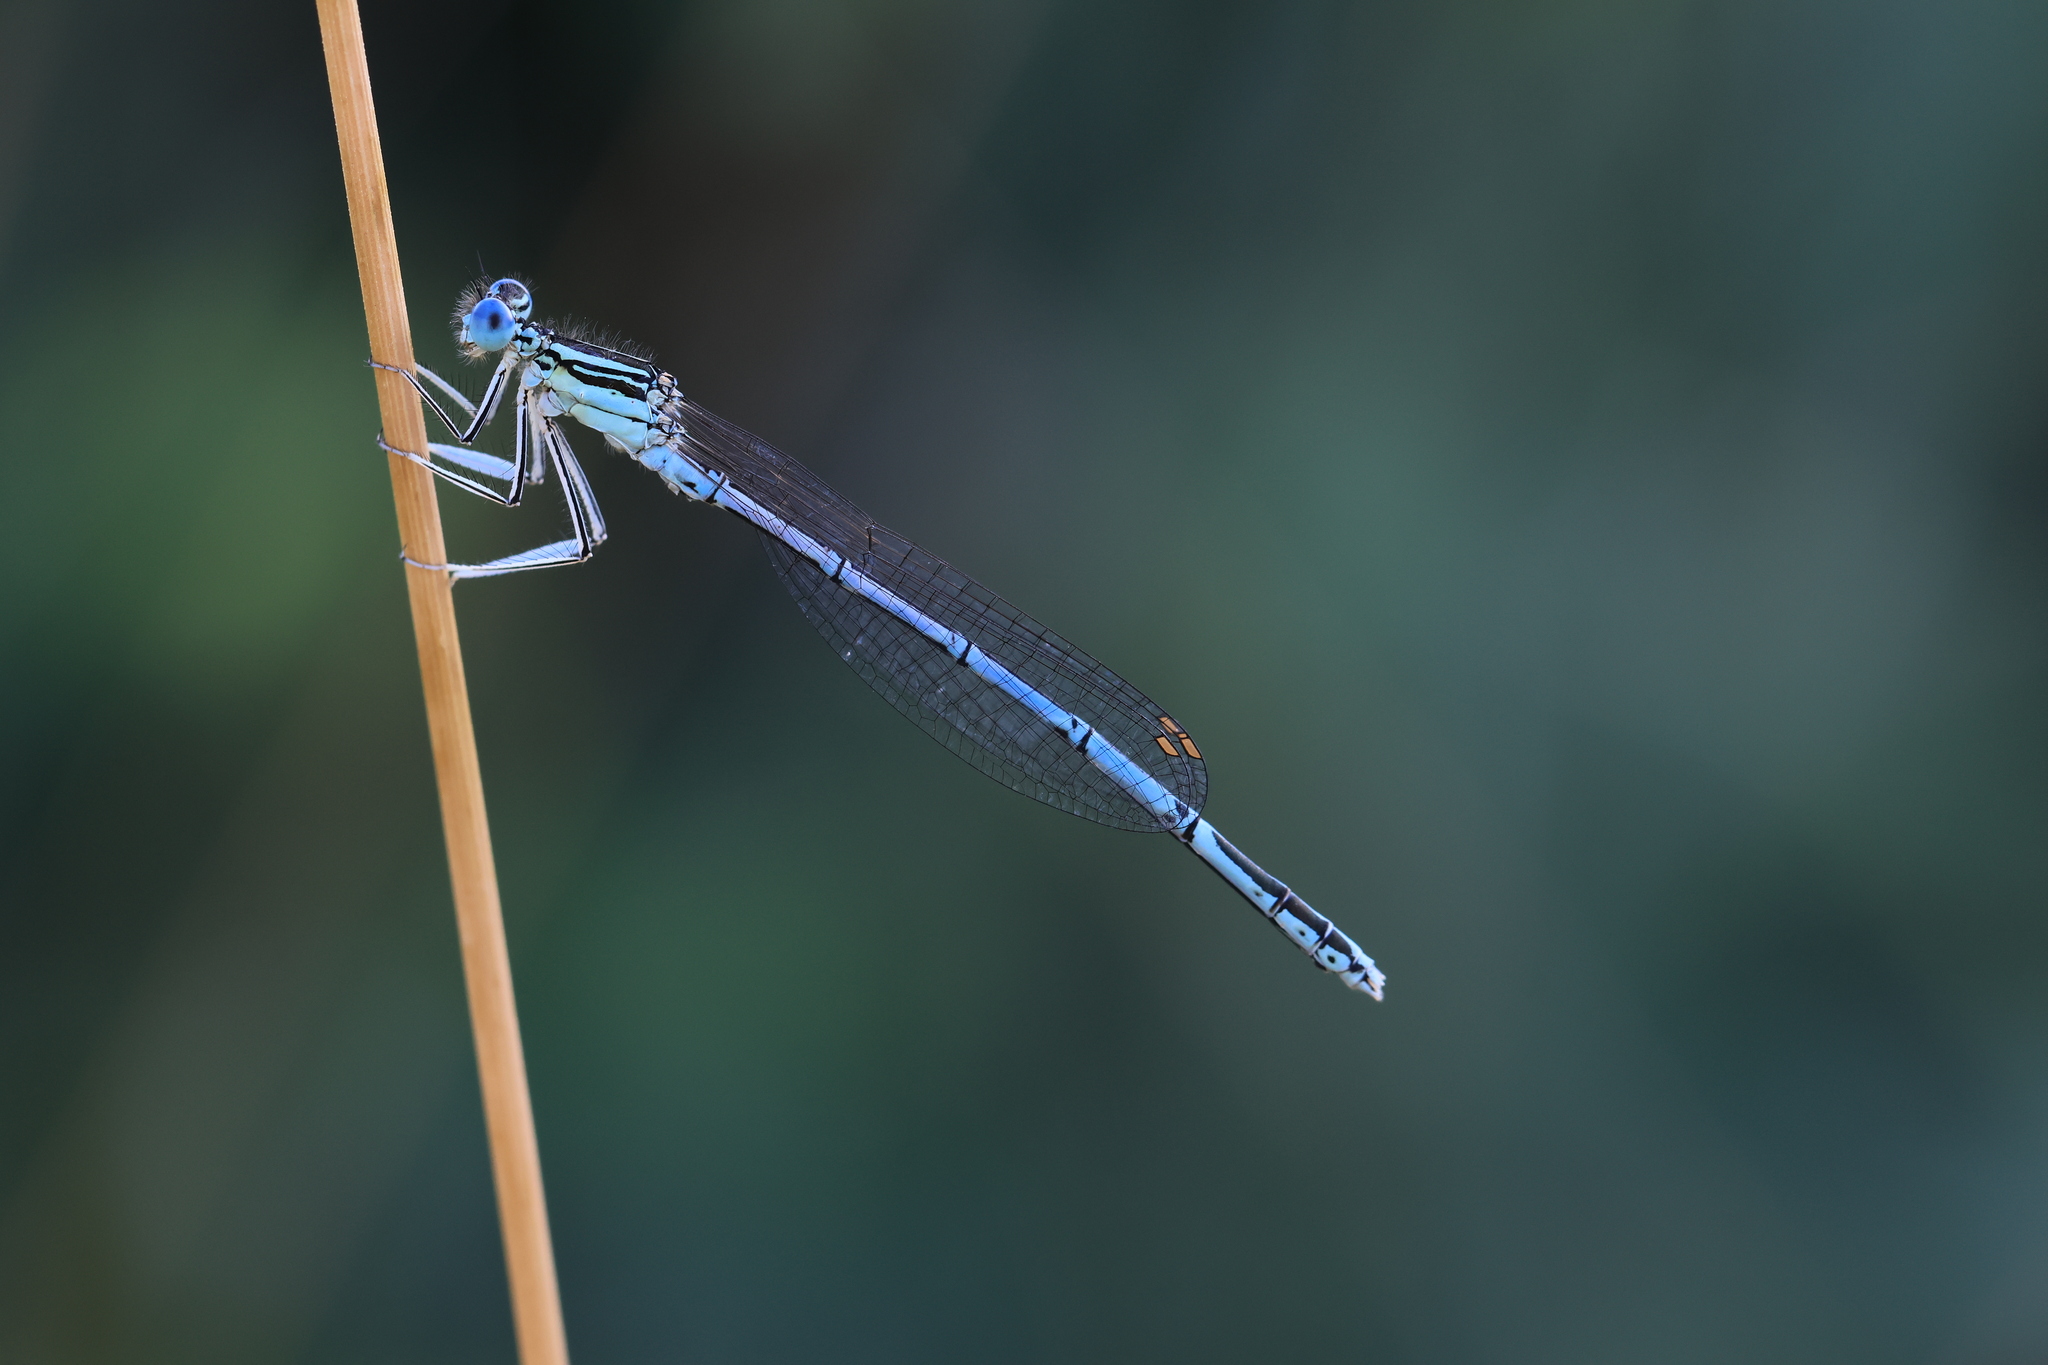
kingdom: Animalia
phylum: Arthropoda
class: Insecta
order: Odonata
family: Platycnemididae
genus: Platycnemis
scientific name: Platycnemis pennipes
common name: White-legged damselfly
